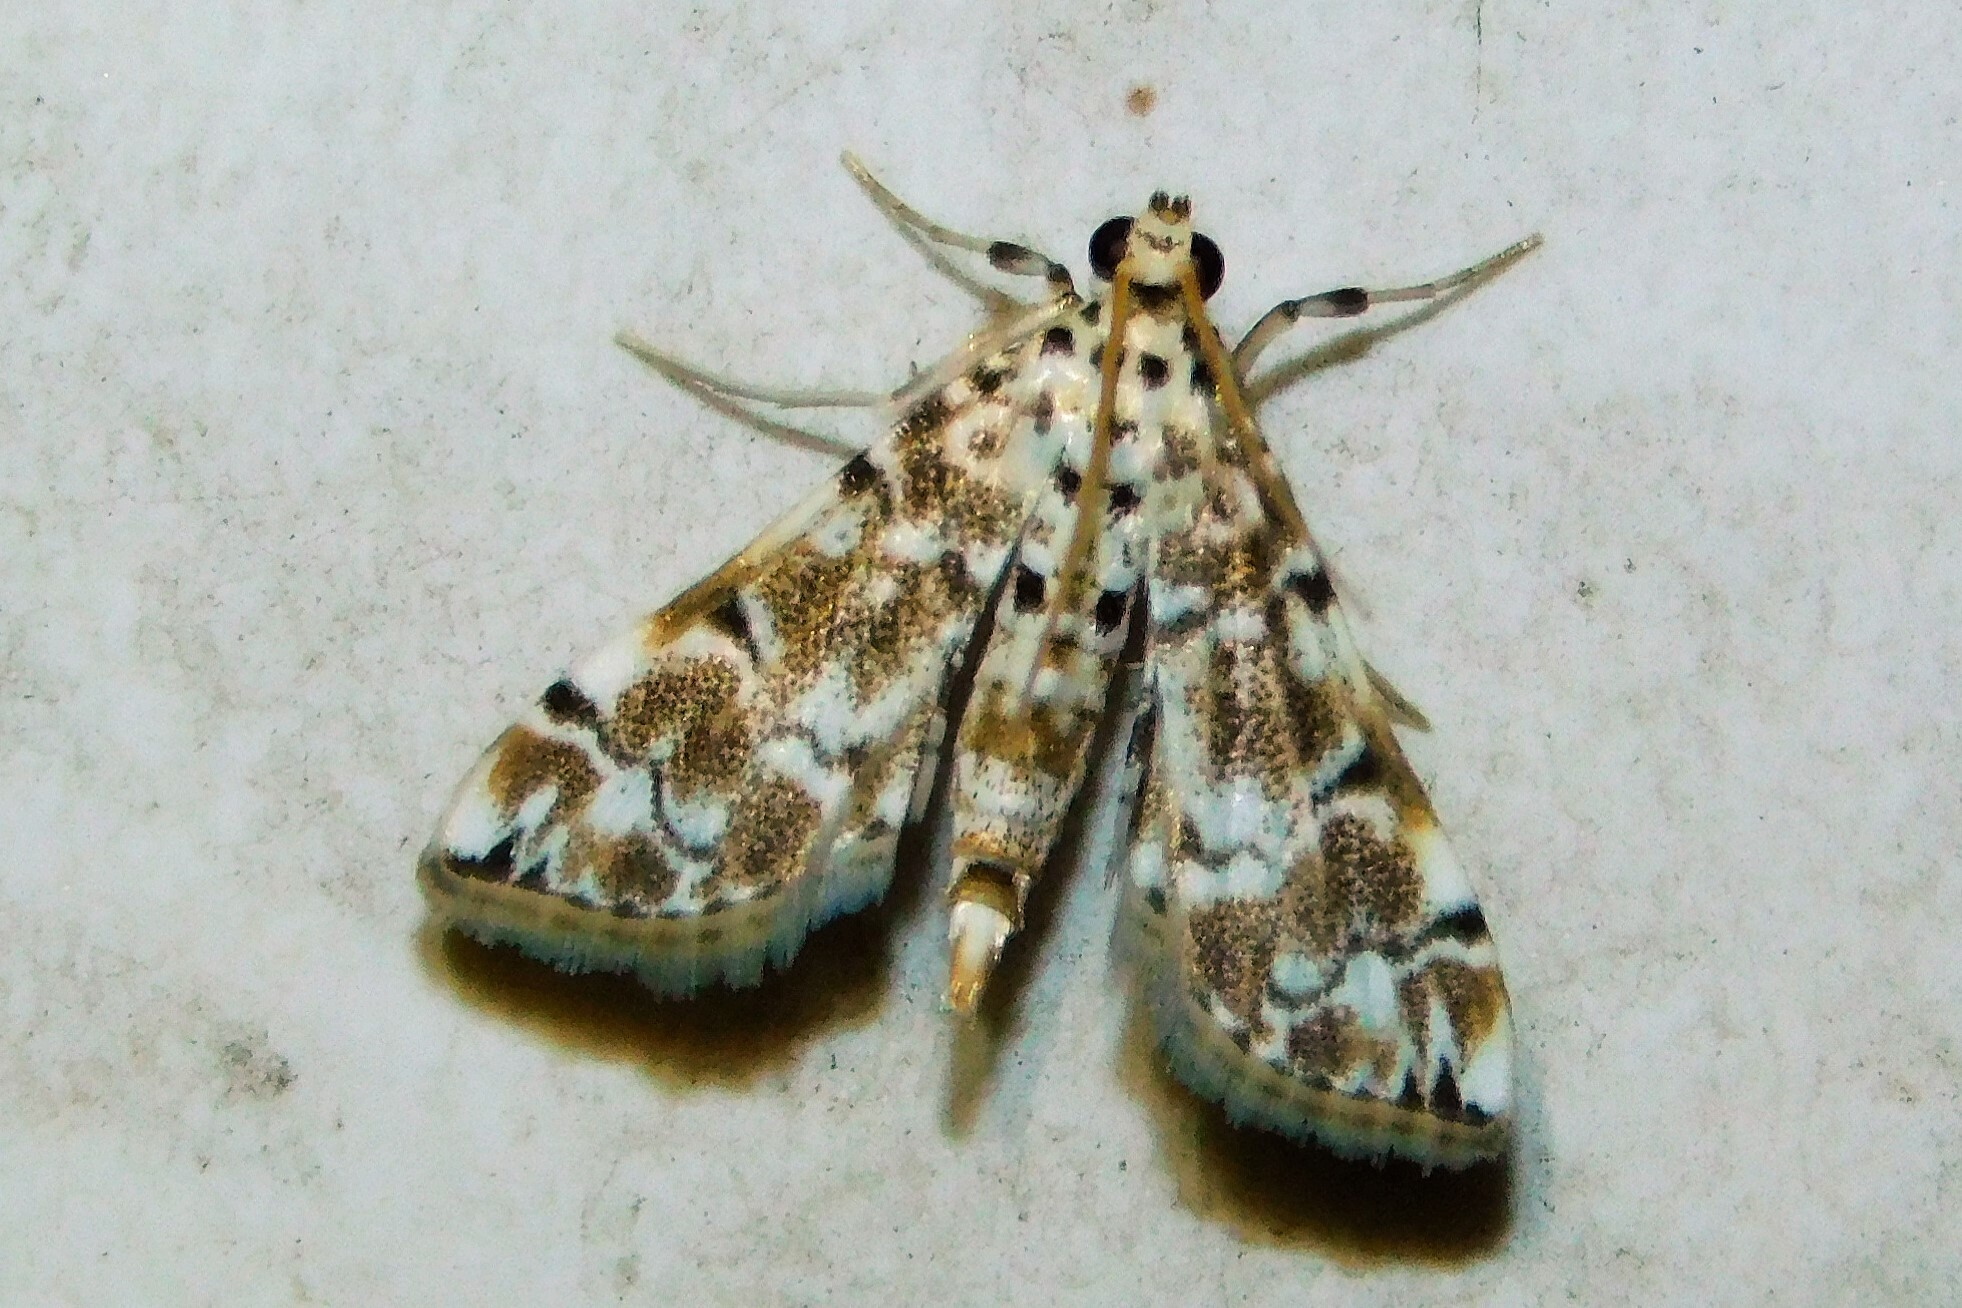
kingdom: Animalia
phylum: Arthropoda
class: Insecta
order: Lepidoptera
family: Crambidae
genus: Metoeca
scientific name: Metoeca foedalis
